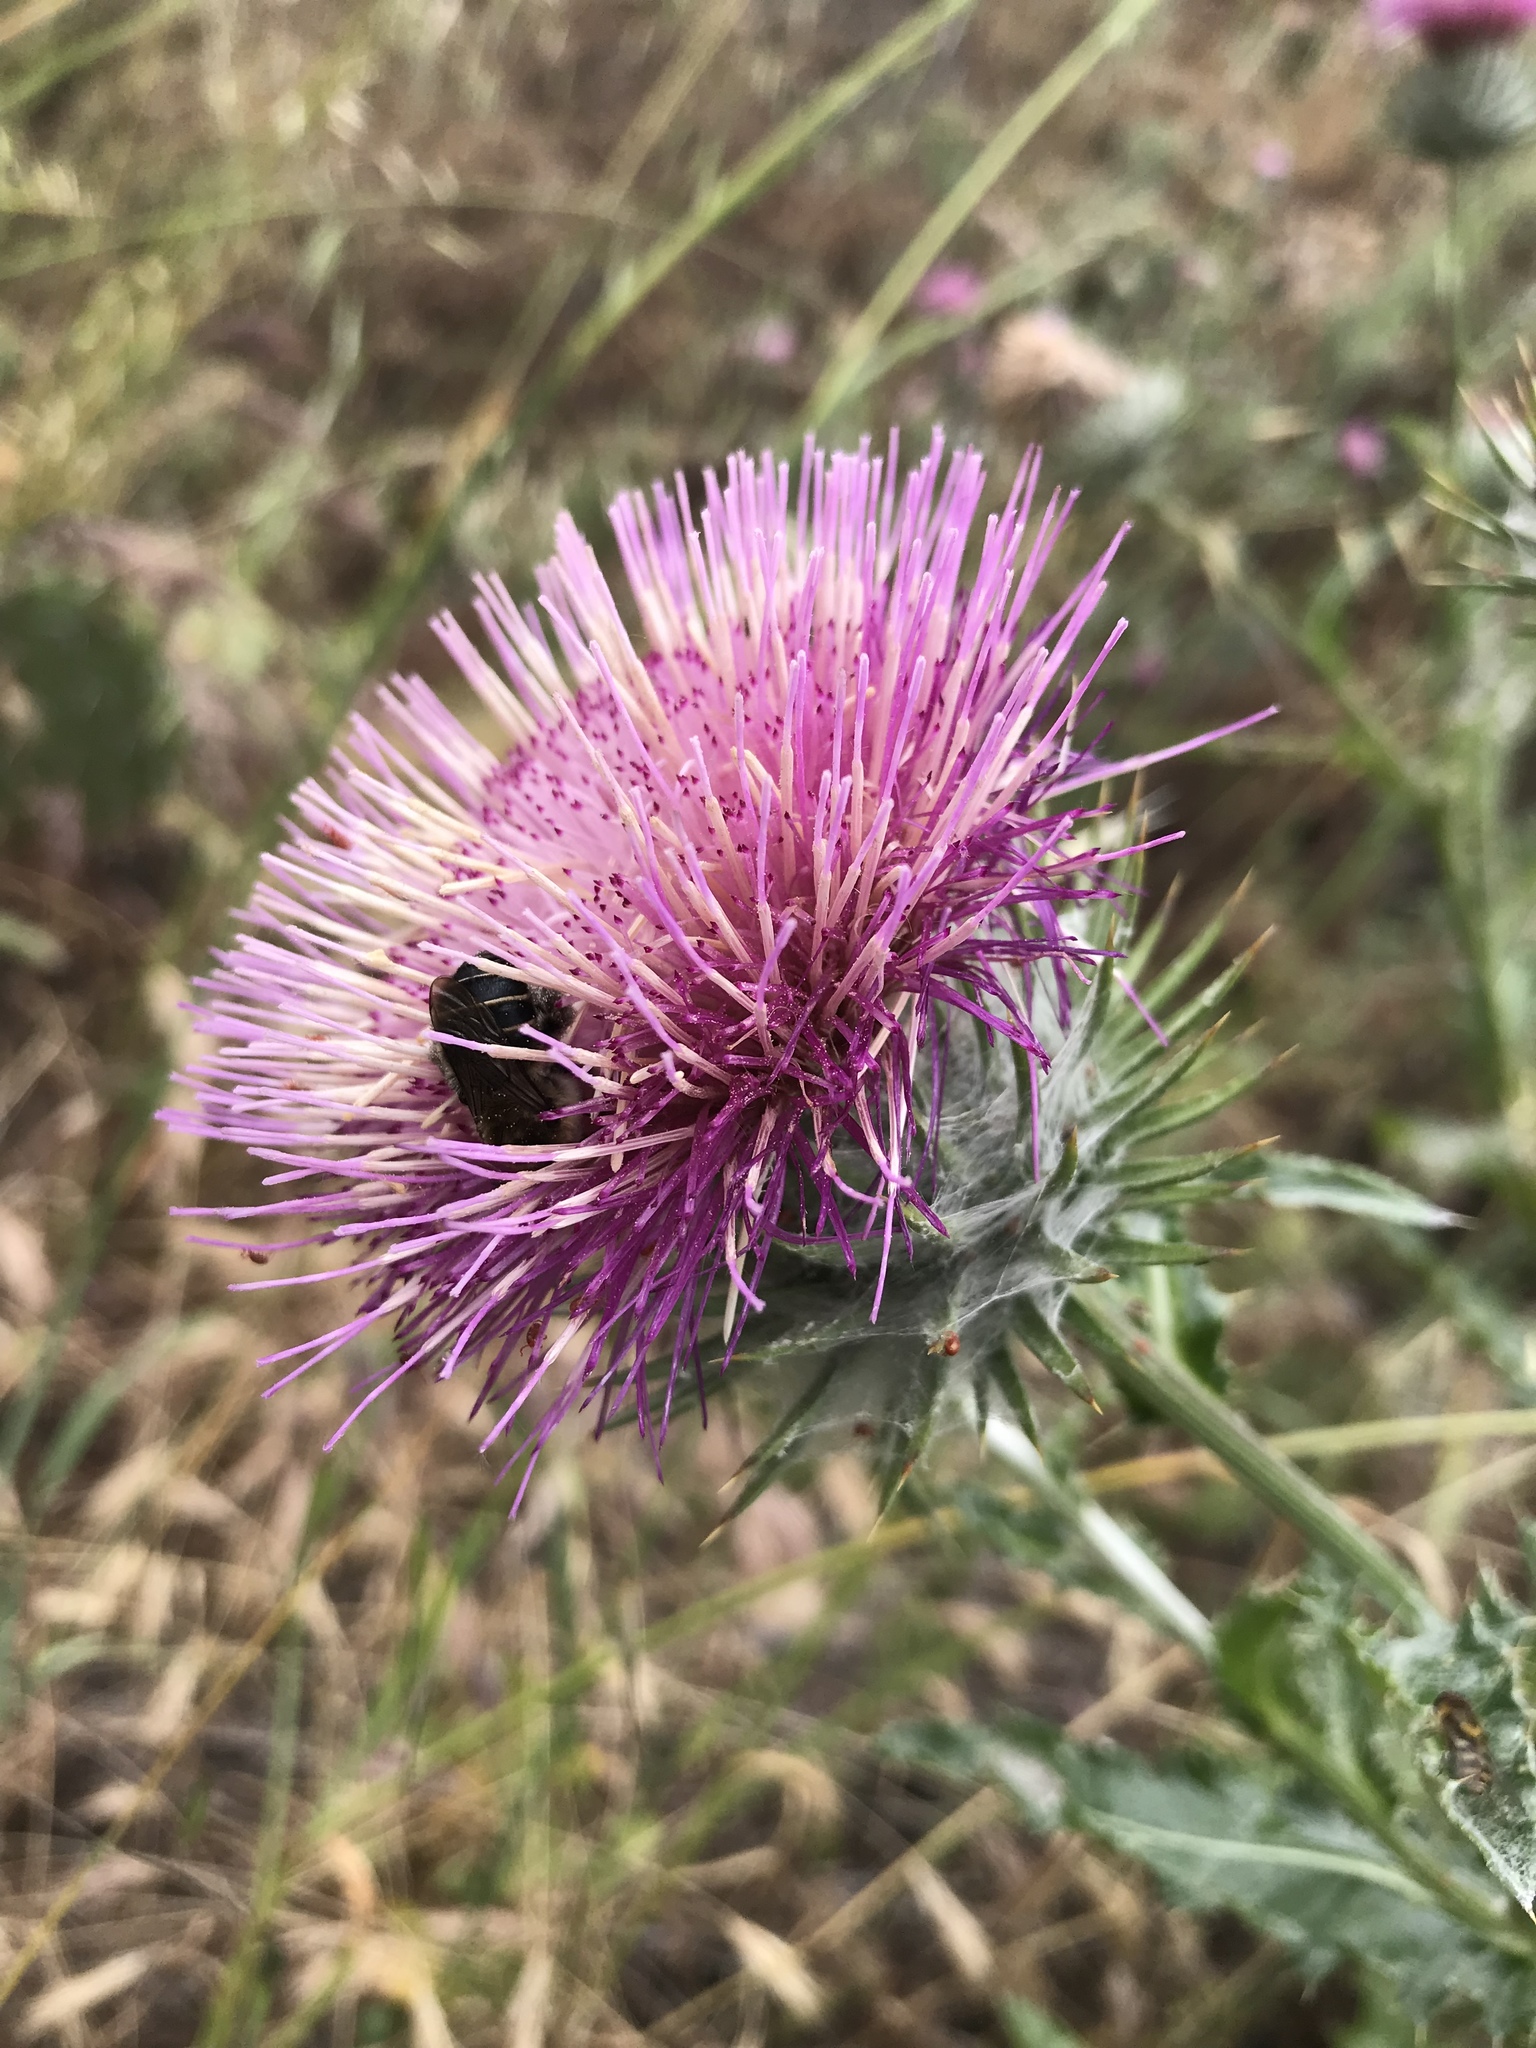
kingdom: Plantae
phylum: Tracheophyta
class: Magnoliopsida
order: Asterales
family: Asteraceae
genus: Cirsium
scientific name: Cirsium occidentale
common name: Western thistle
